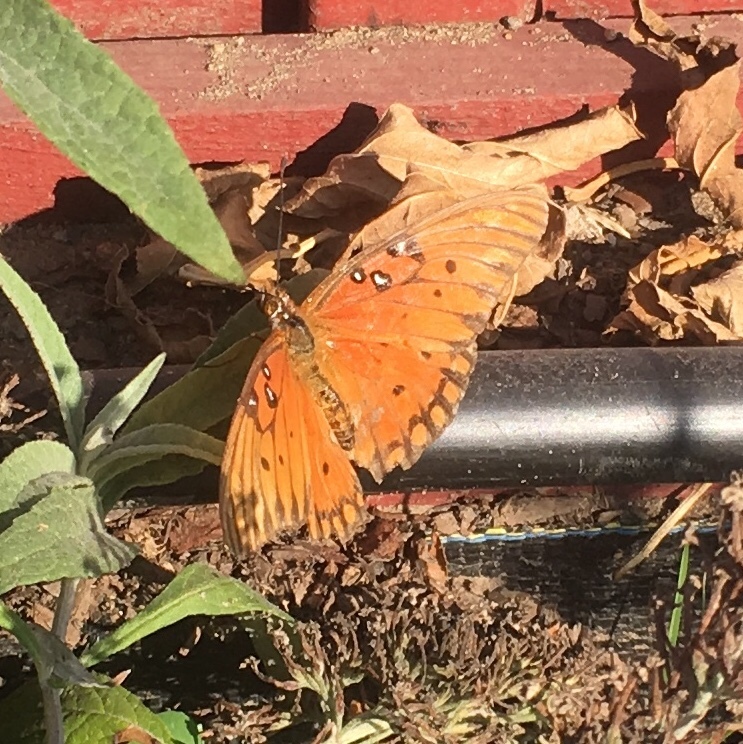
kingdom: Animalia
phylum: Arthropoda
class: Insecta
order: Lepidoptera
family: Nymphalidae
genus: Dione
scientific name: Dione vanillae
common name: Gulf fritillary
